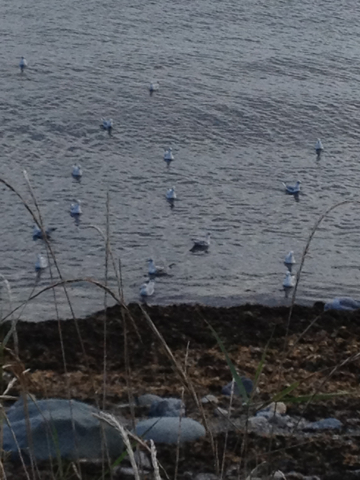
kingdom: Animalia
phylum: Chordata
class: Aves
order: Charadriiformes
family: Laridae
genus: Chroicocephalus
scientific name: Chroicocephalus philadelphia
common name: Bonaparte's gull
